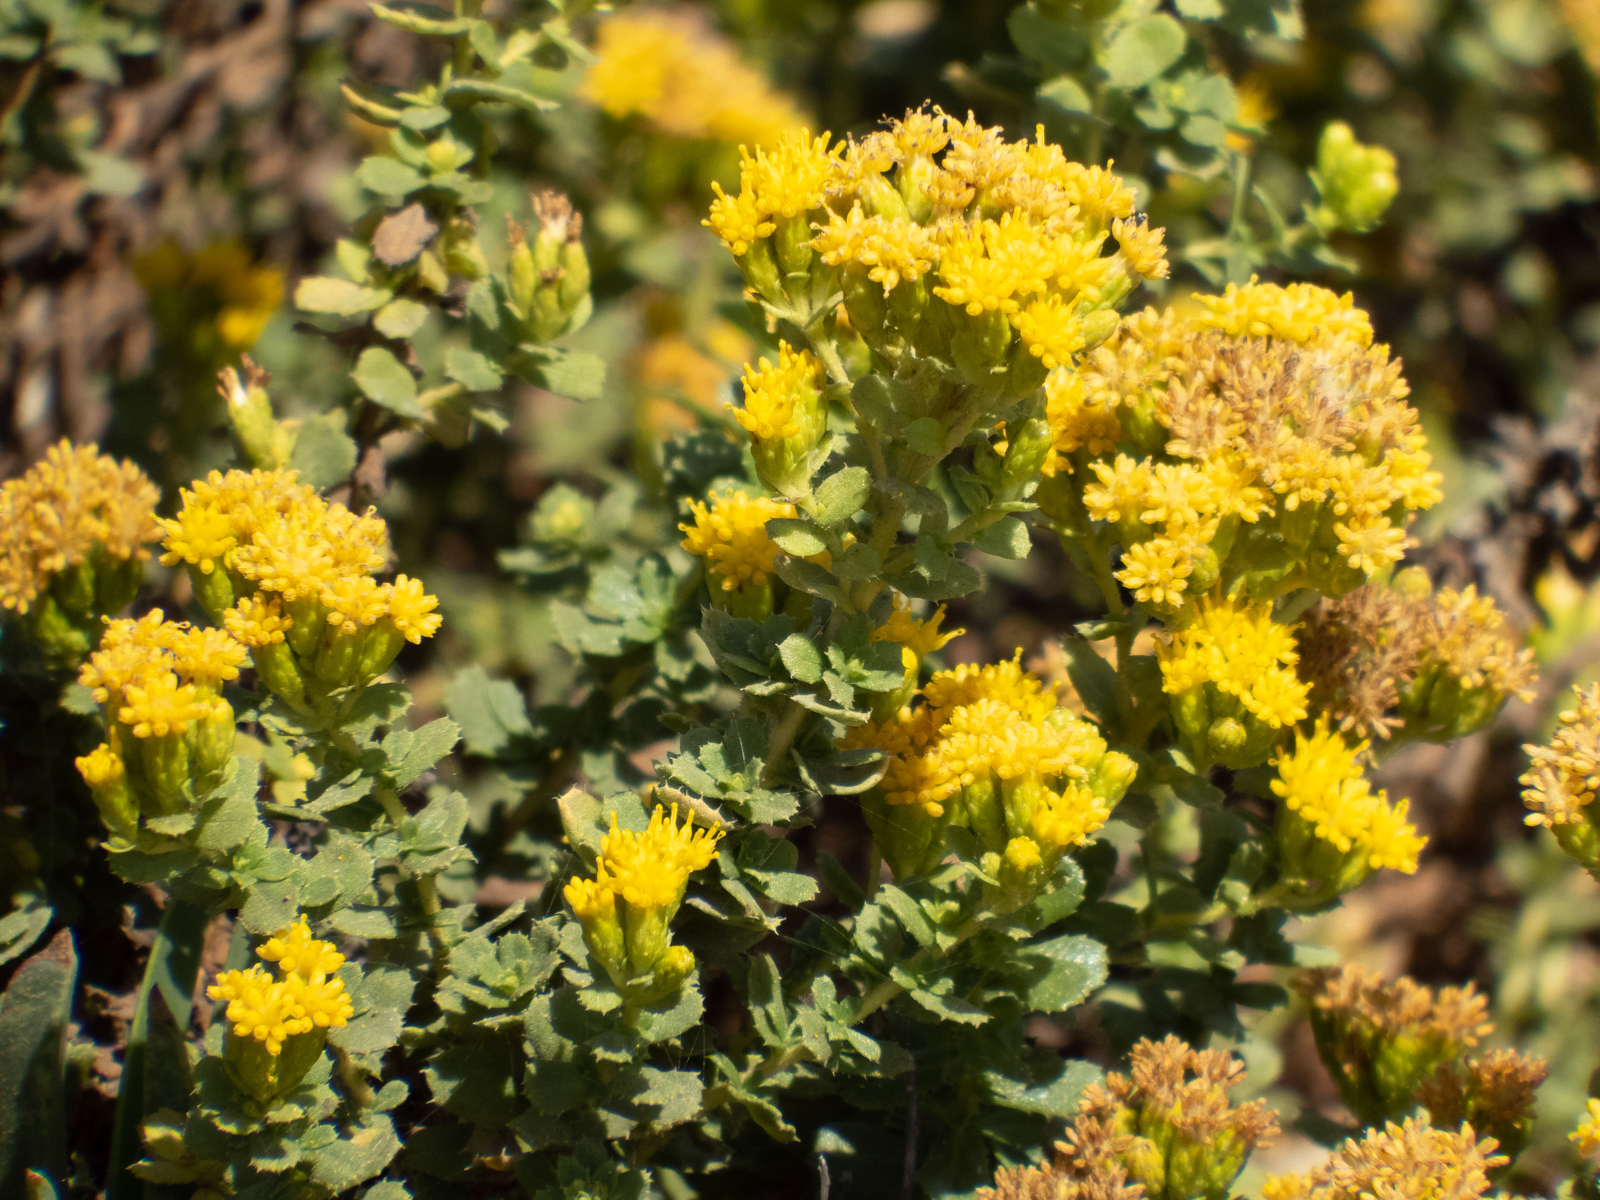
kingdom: Plantae
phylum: Tracheophyta
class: Magnoliopsida
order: Asterales
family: Asteraceae
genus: Isocoma
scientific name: Isocoma menziesii
